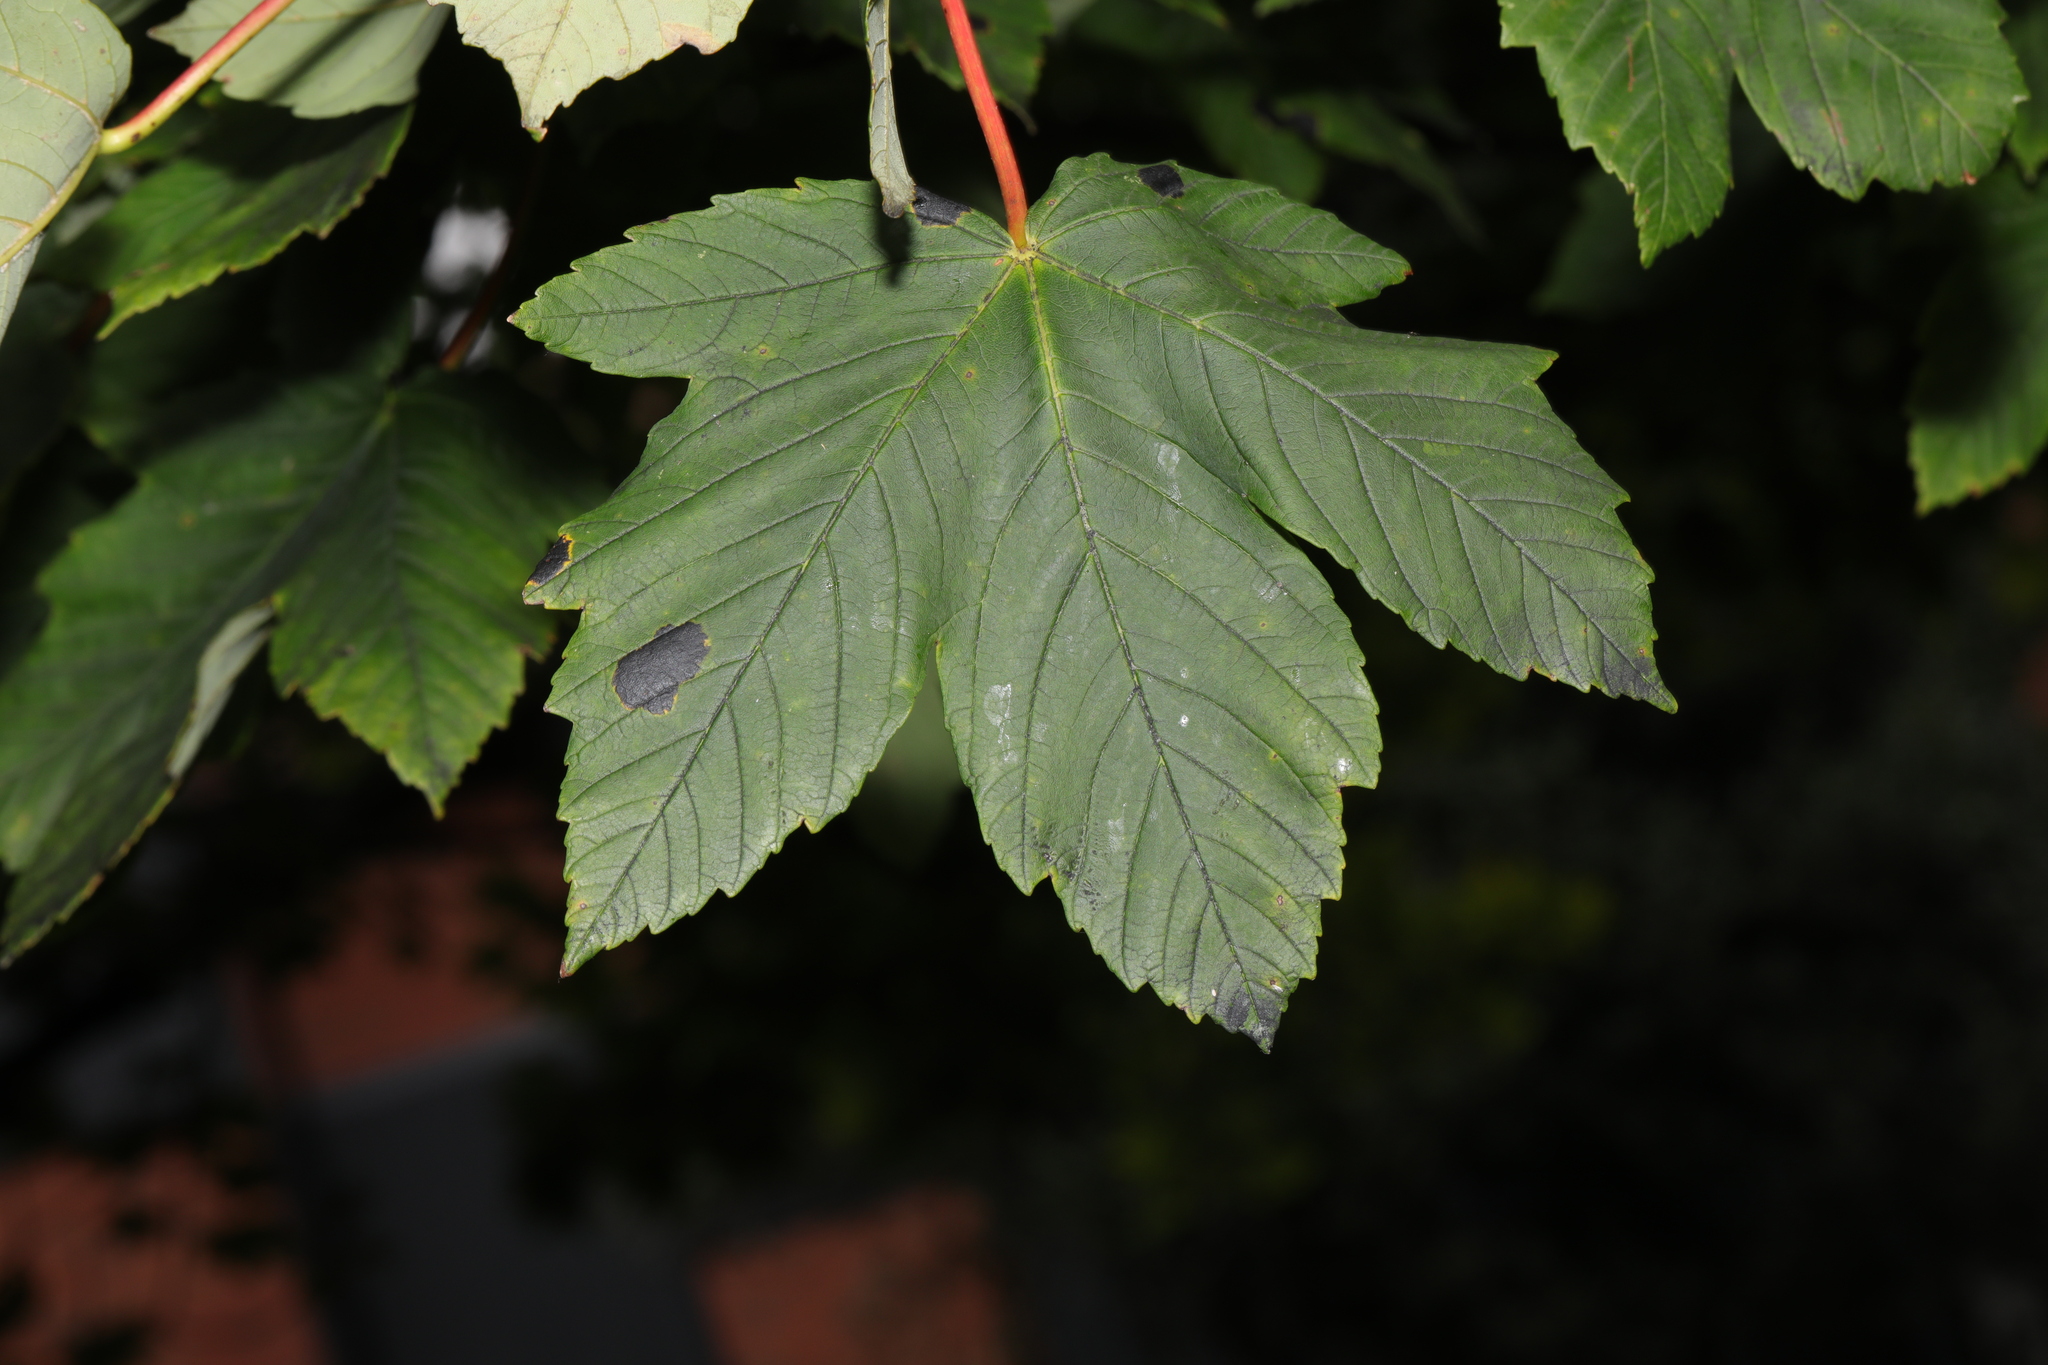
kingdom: Plantae
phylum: Tracheophyta
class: Magnoliopsida
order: Sapindales
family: Sapindaceae
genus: Acer
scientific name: Acer pseudoplatanus
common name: Sycamore
